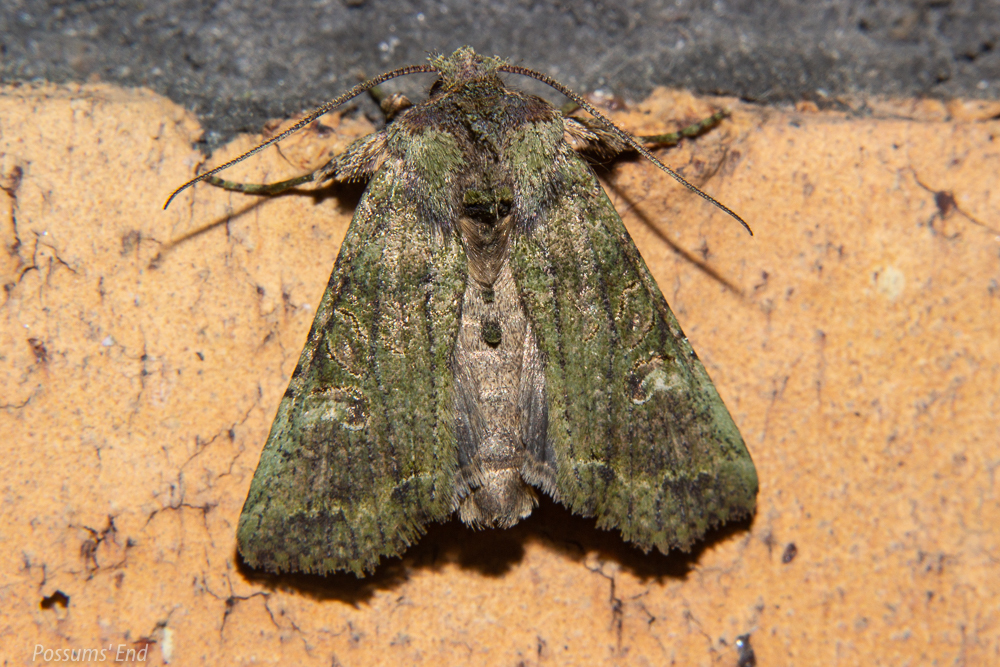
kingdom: Animalia
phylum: Arthropoda
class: Insecta
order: Lepidoptera
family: Noctuidae
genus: Meterana
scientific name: Meterana levis
